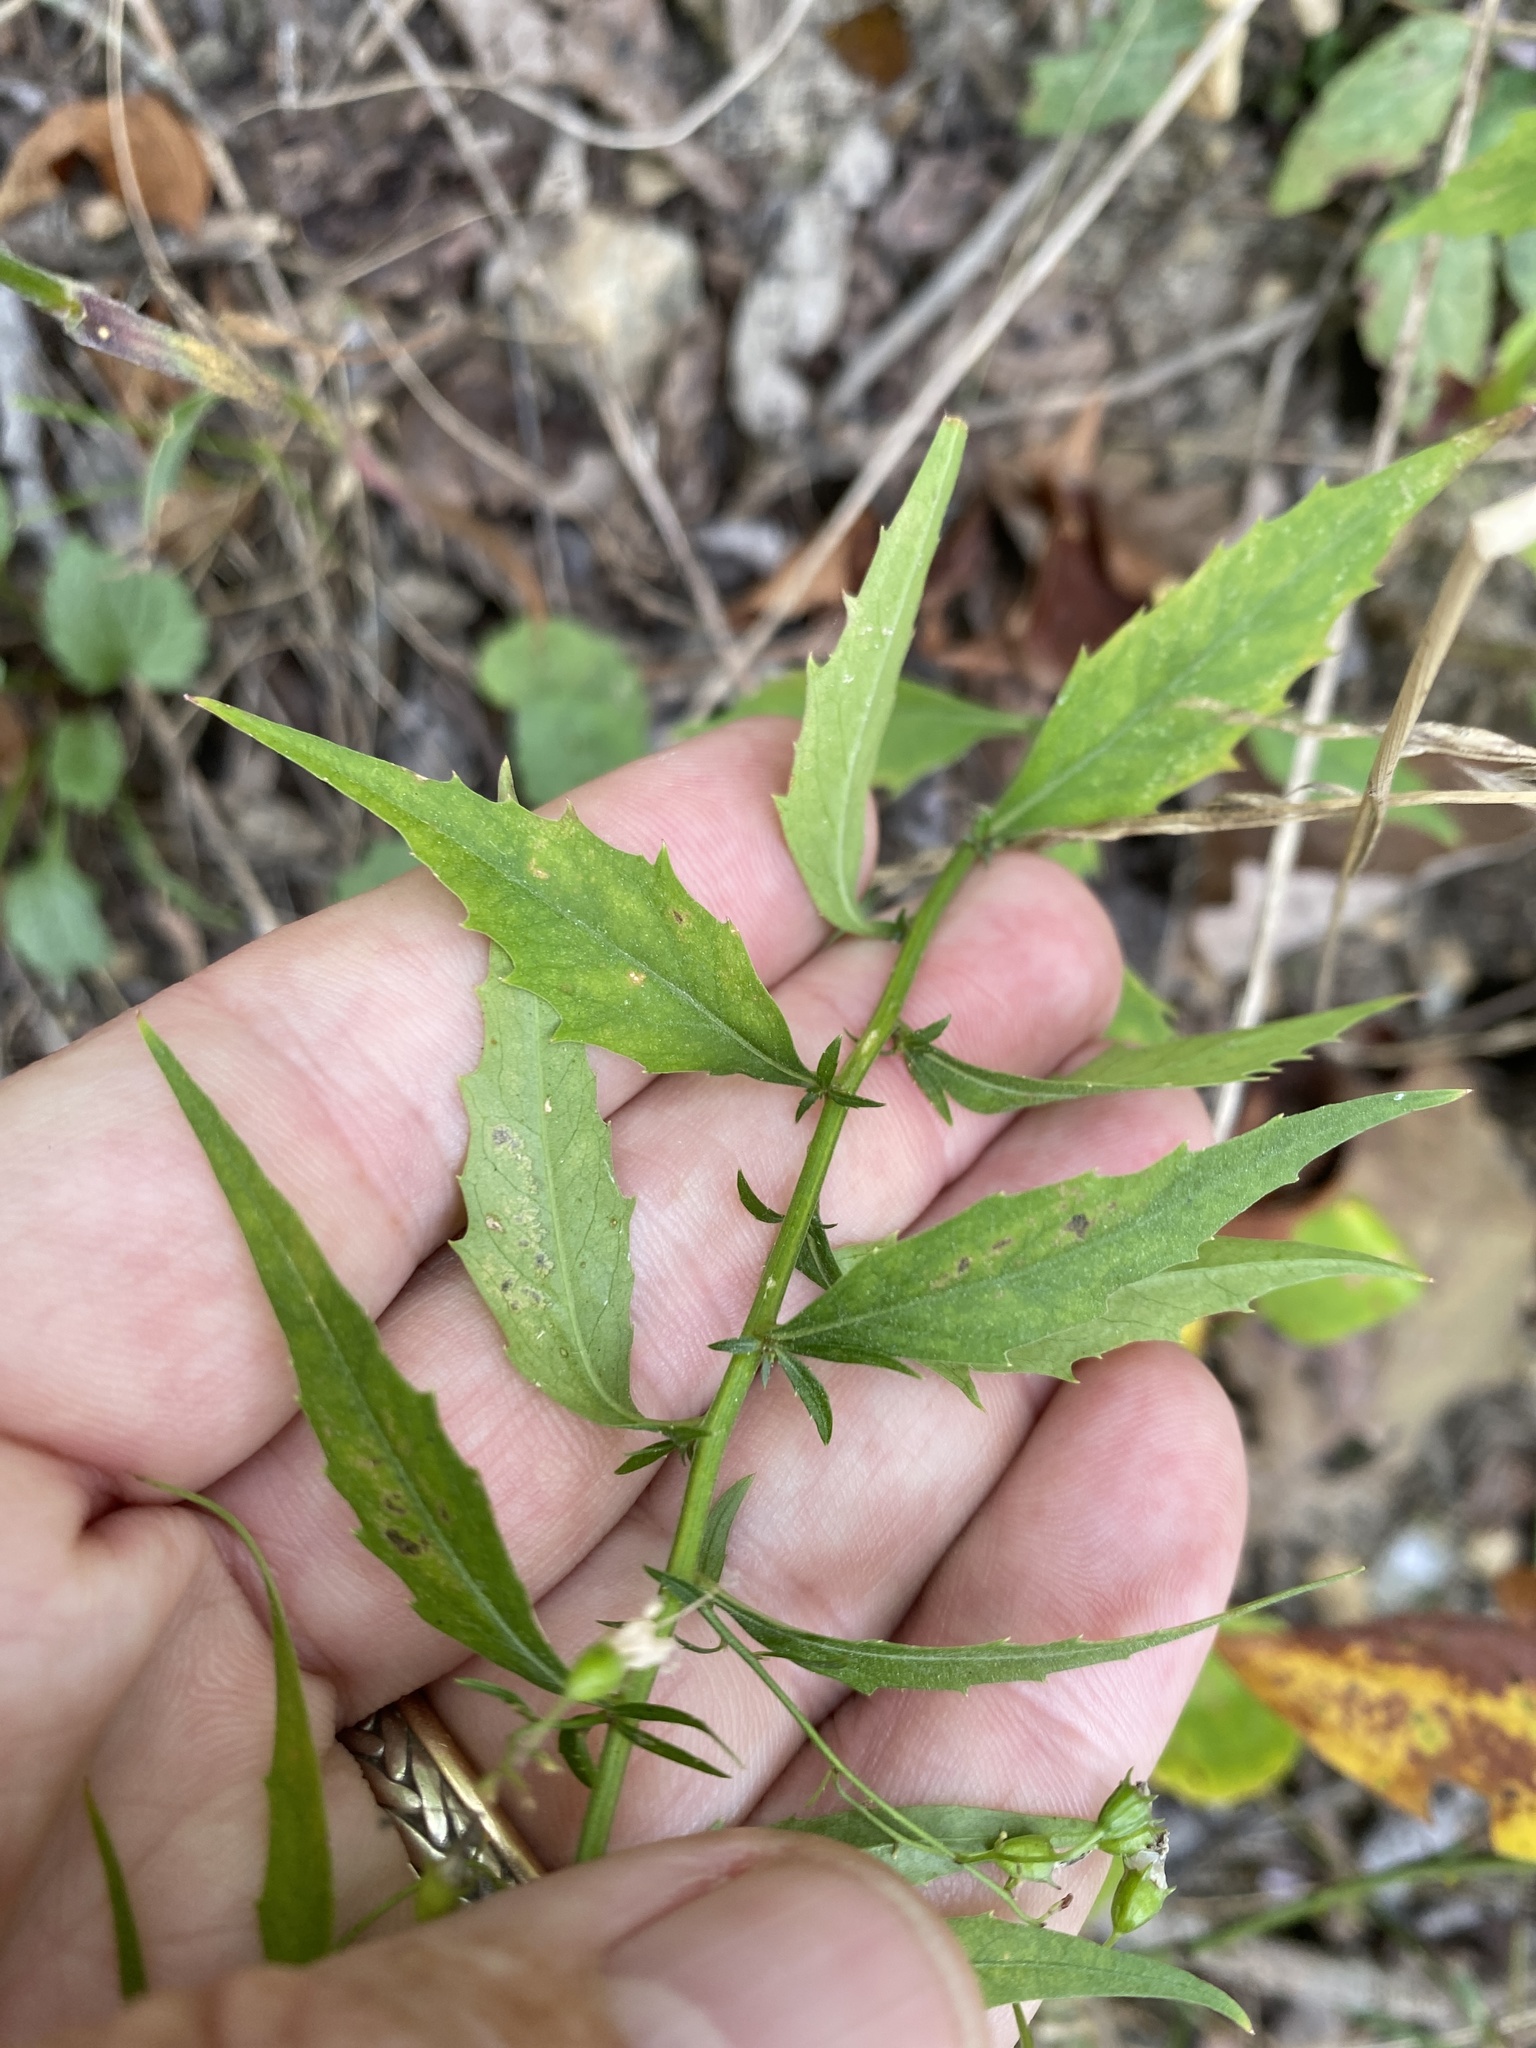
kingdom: Plantae
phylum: Tracheophyta
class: Magnoliopsida
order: Asterales
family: Campanulaceae
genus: Campanula
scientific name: Campanula divaricata
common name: Appalachian bellflower
